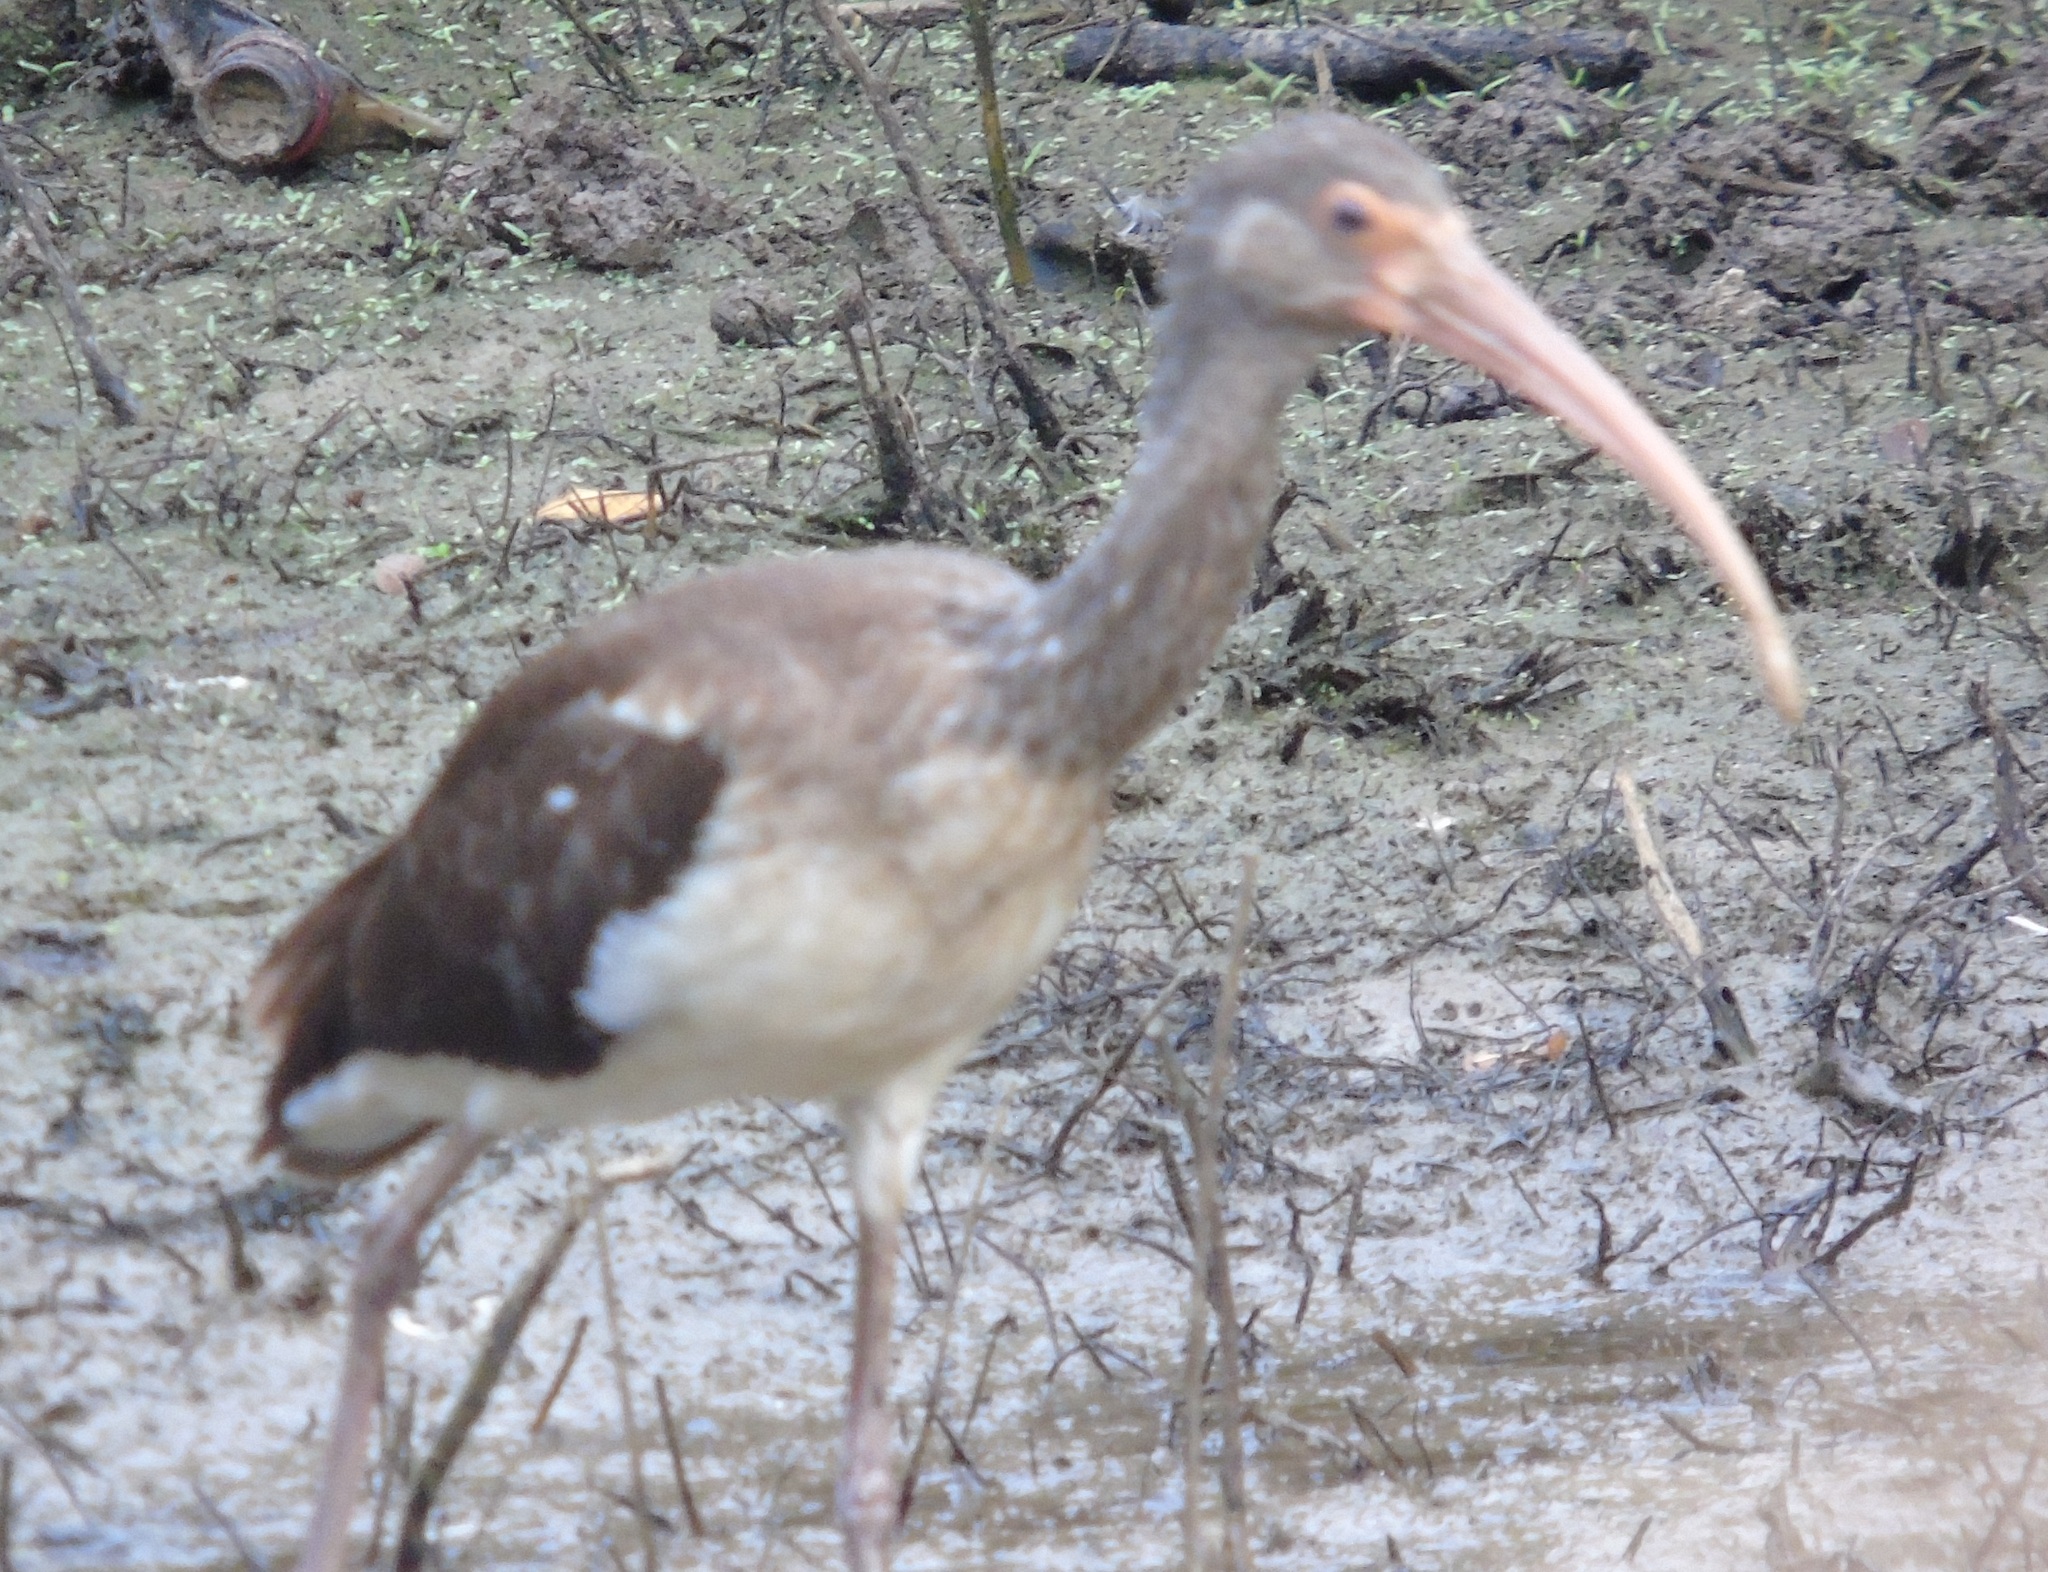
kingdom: Animalia
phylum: Chordata
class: Aves
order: Pelecaniformes
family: Threskiornithidae
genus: Eudocimus
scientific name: Eudocimus albus
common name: White ibis
